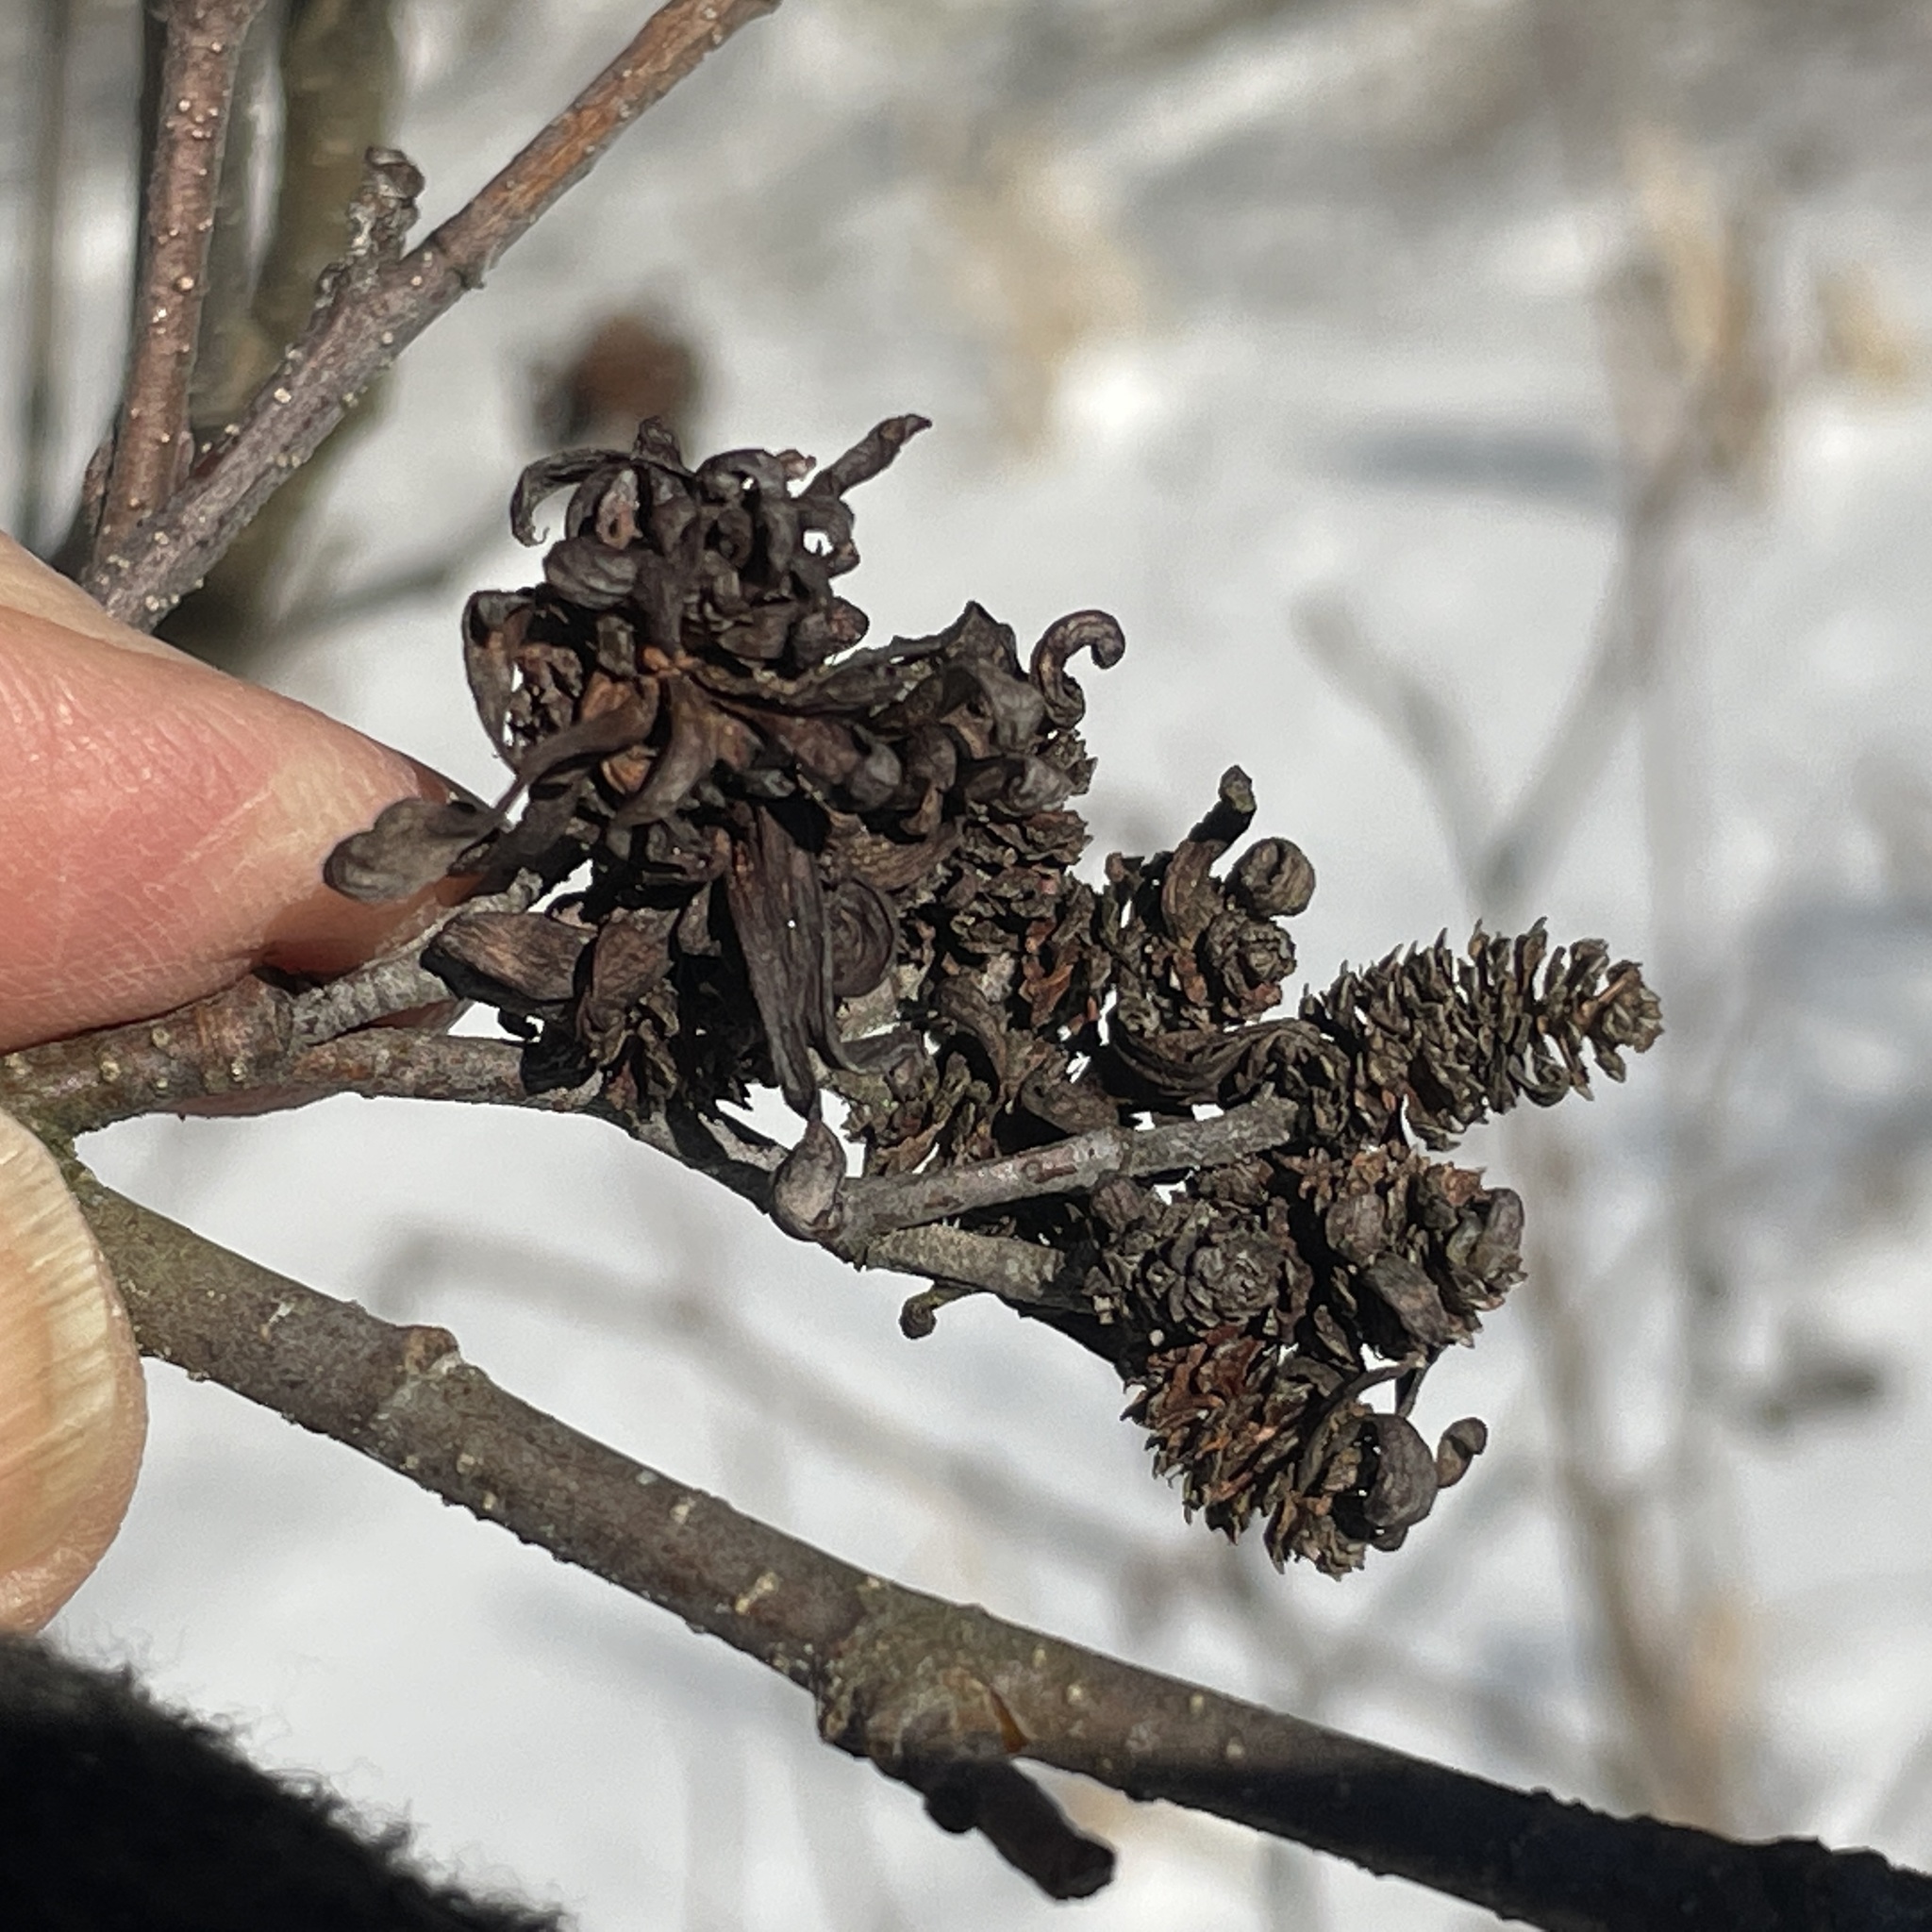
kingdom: Fungi
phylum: Ascomycota
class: Taphrinomycetes
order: Taphrinales
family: Taphrinaceae
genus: Taphrina
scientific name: Taphrina robinsoniana
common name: Eastern american alder tongue gall fungus
